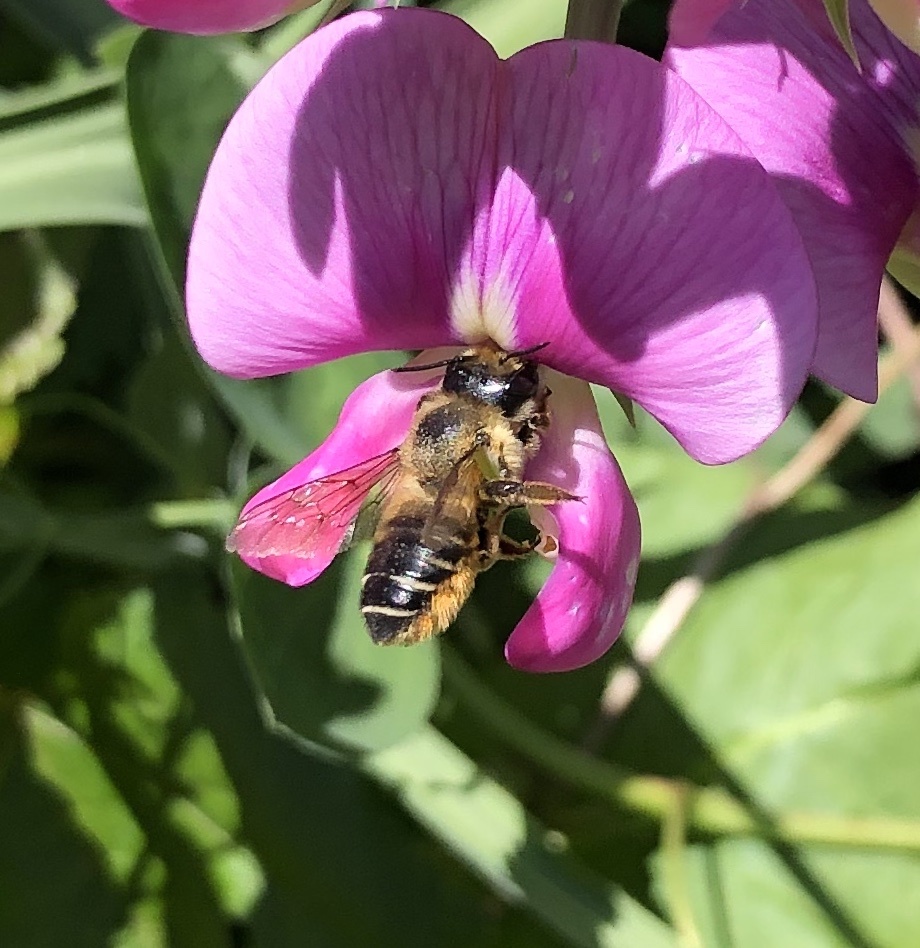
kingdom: Animalia
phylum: Arthropoda
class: Insecta
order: Hymenoptera
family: Megachilidae
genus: Megachile
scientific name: Megachile frigida
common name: Frigid leafcutter
